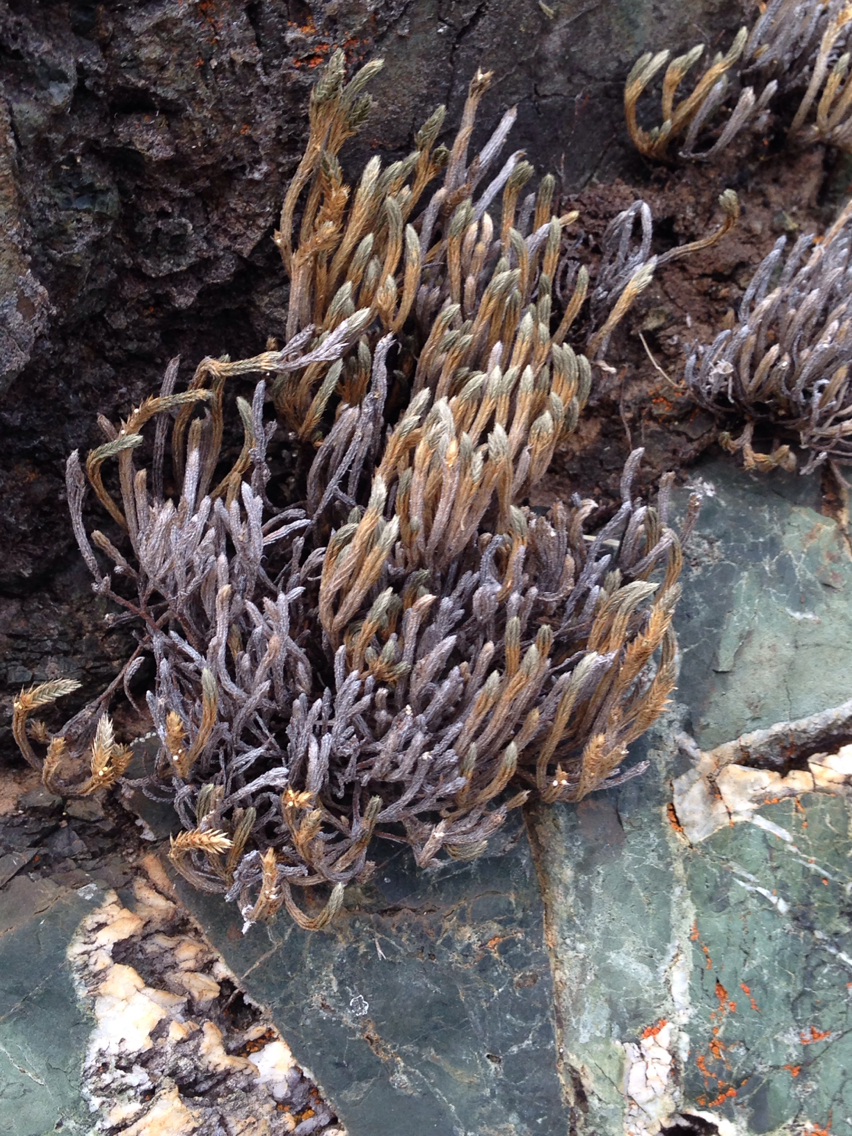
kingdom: Plantae
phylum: Tracheophyta
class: Lycopodiopsida
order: Selaginellales
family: Selaginellaceae
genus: Selaginella
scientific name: Selaginella bigelovii
